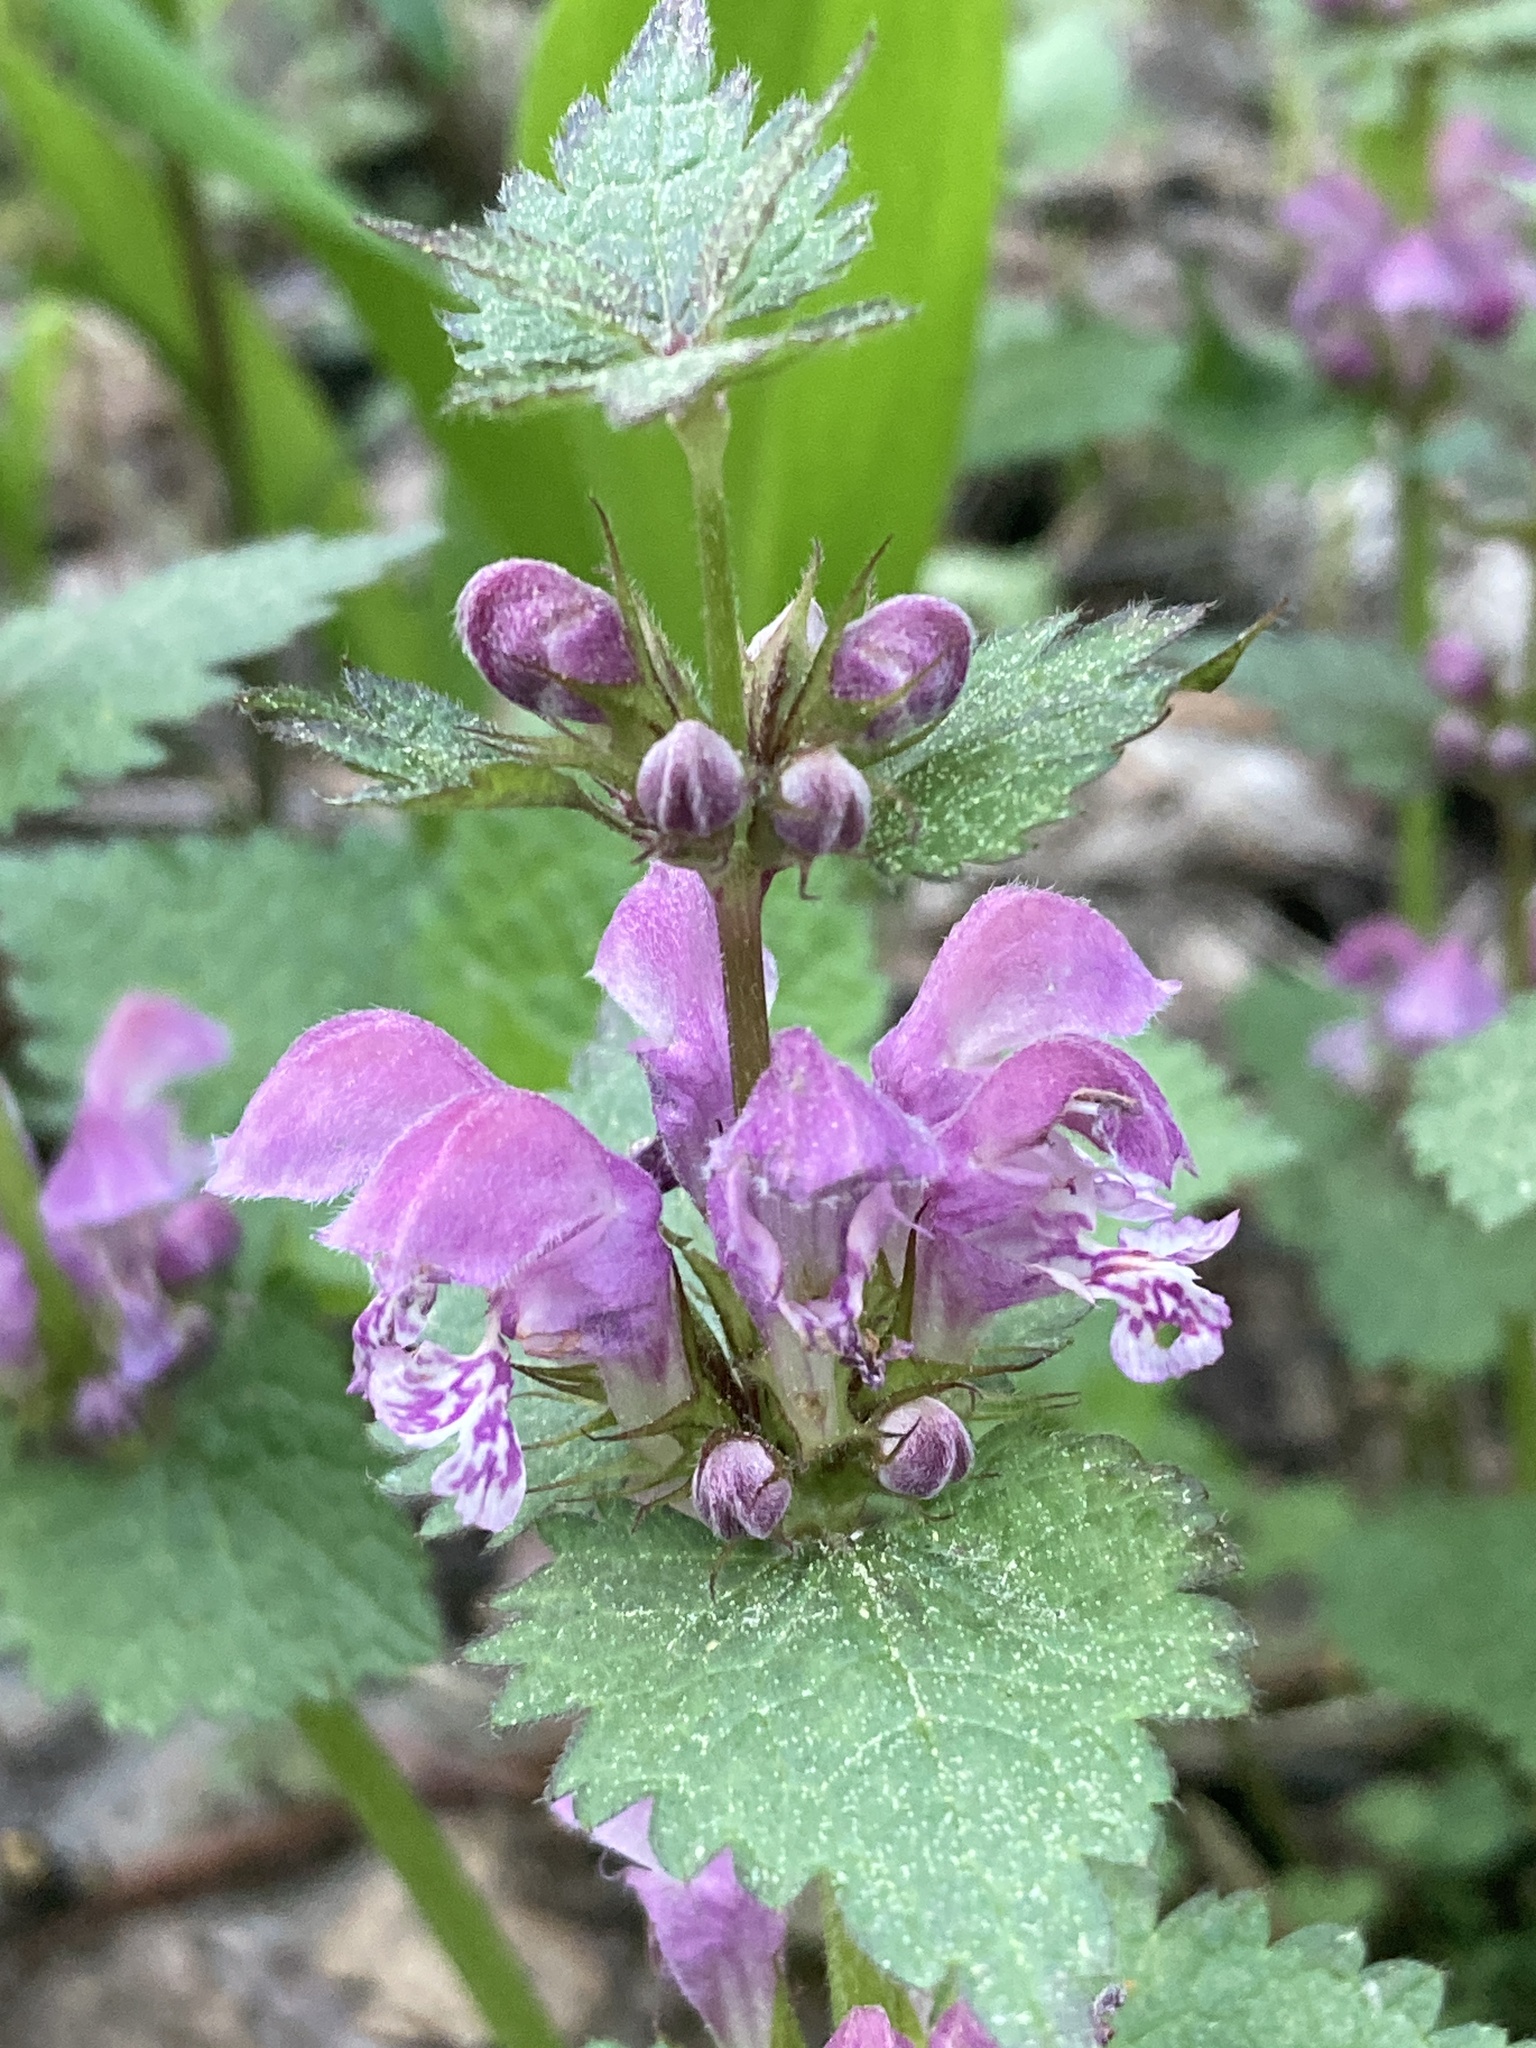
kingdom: Plantae
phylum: Tracheophyta
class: Magnoliopsida
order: Lamiales
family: Lamiaceae
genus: Lamium
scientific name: Lamium maculatum
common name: Spotted dead-nettle
